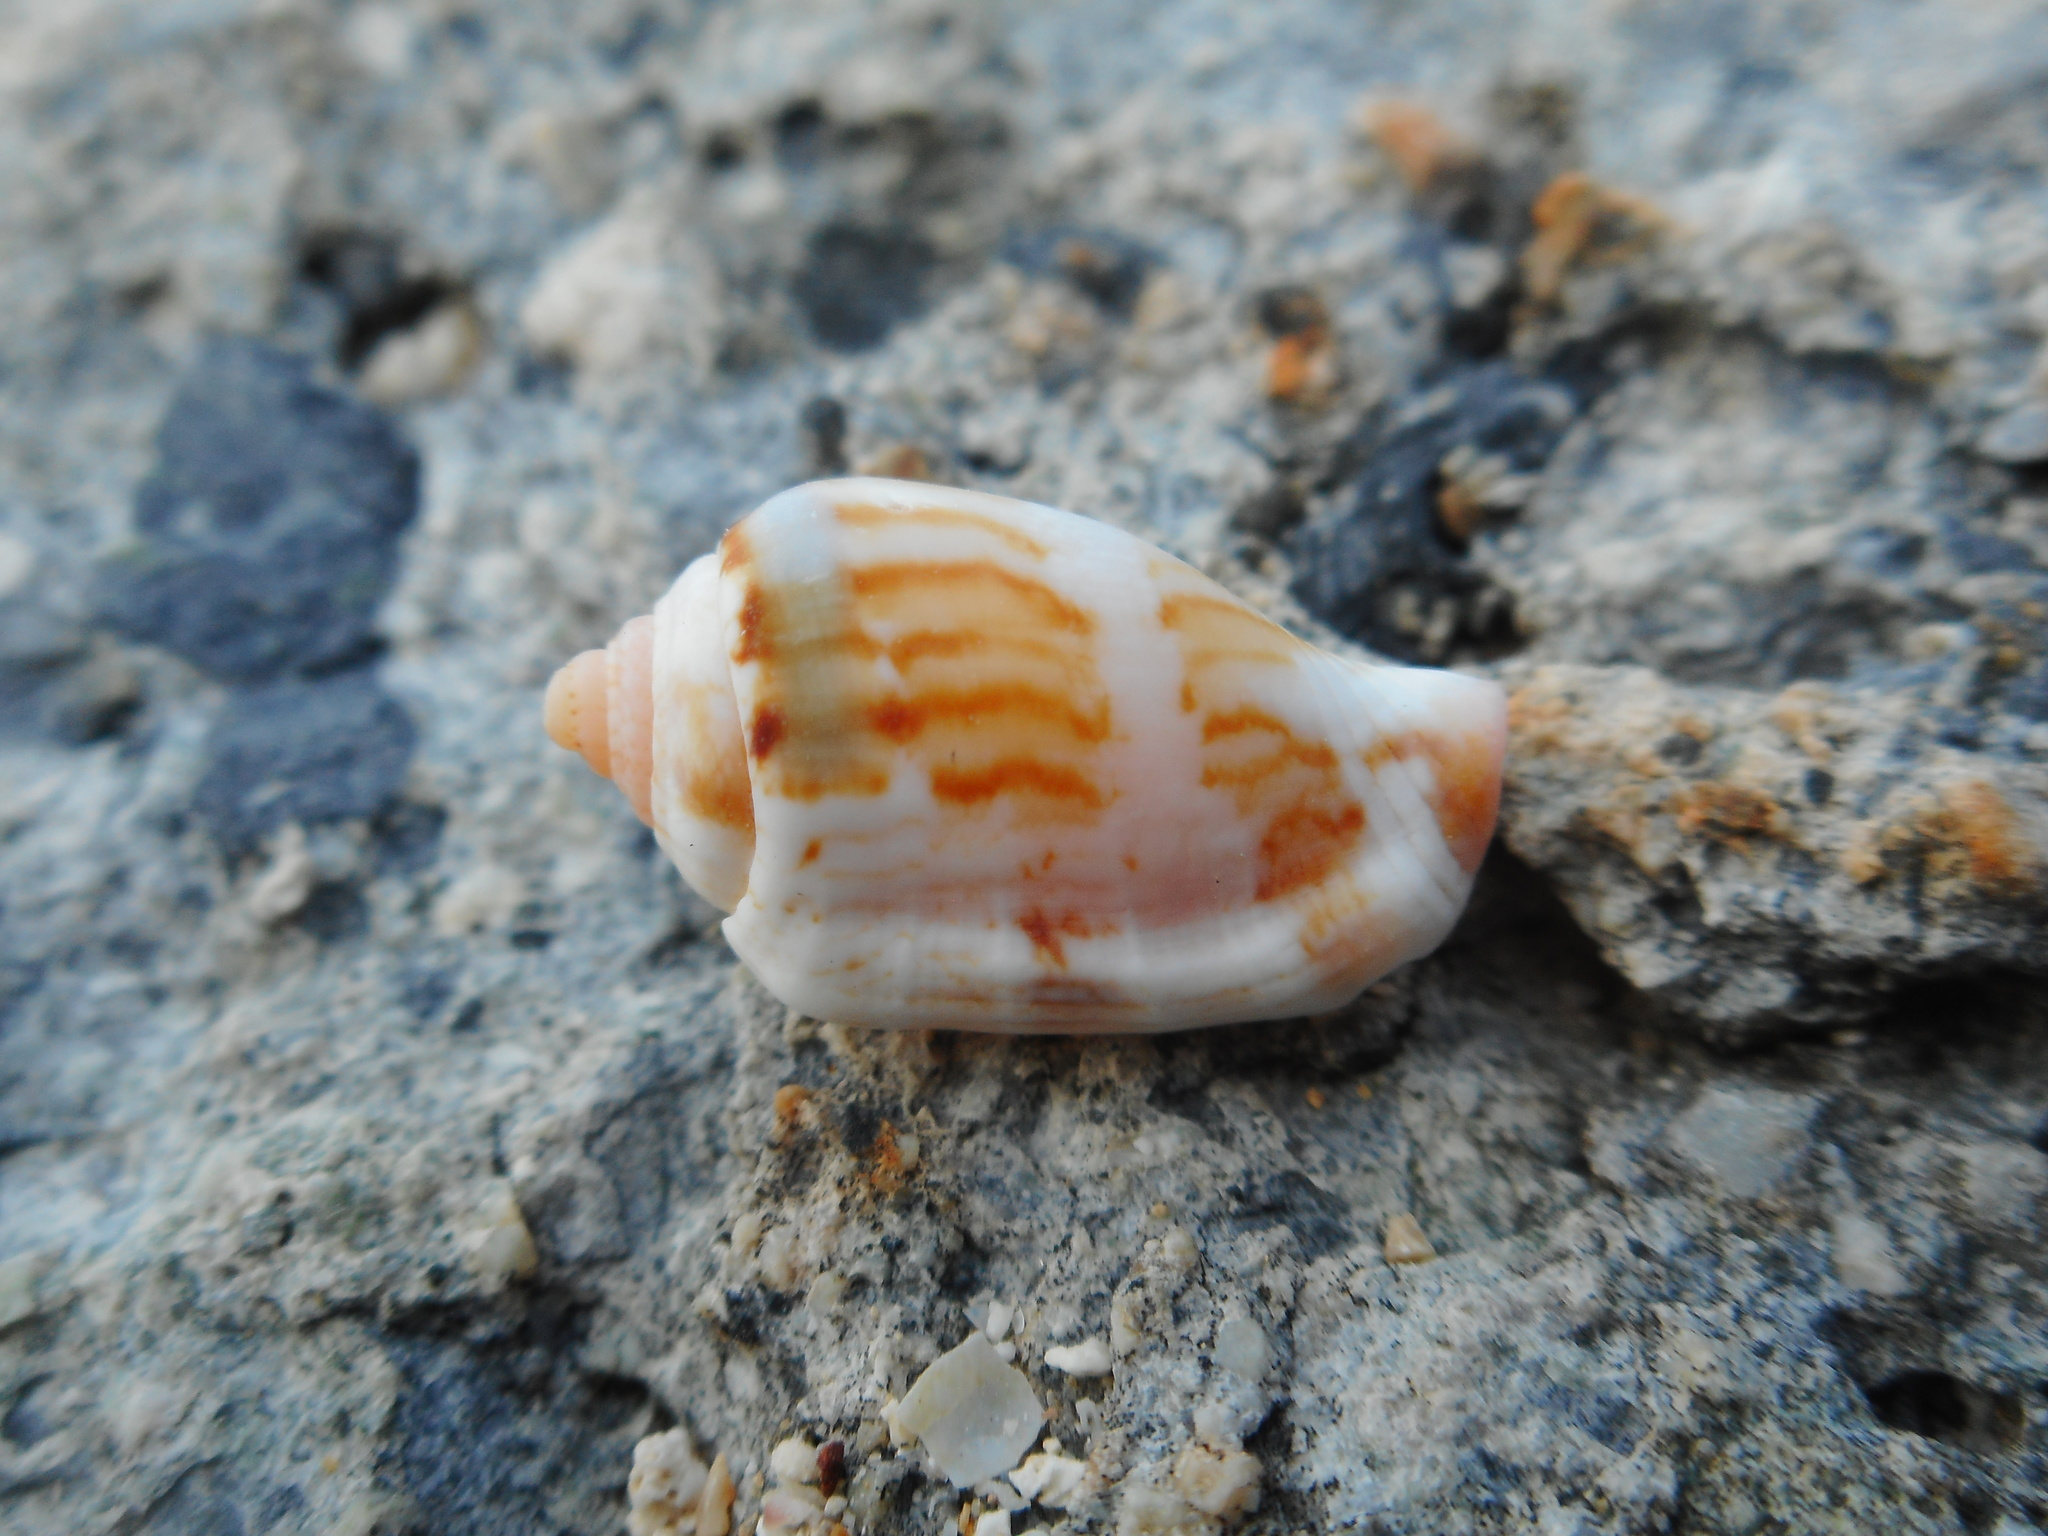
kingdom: Animalia
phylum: Mollusca
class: Gastropoda
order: Littorinimorpha
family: Strombidae
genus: Canarium
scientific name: Canarium mutabile
